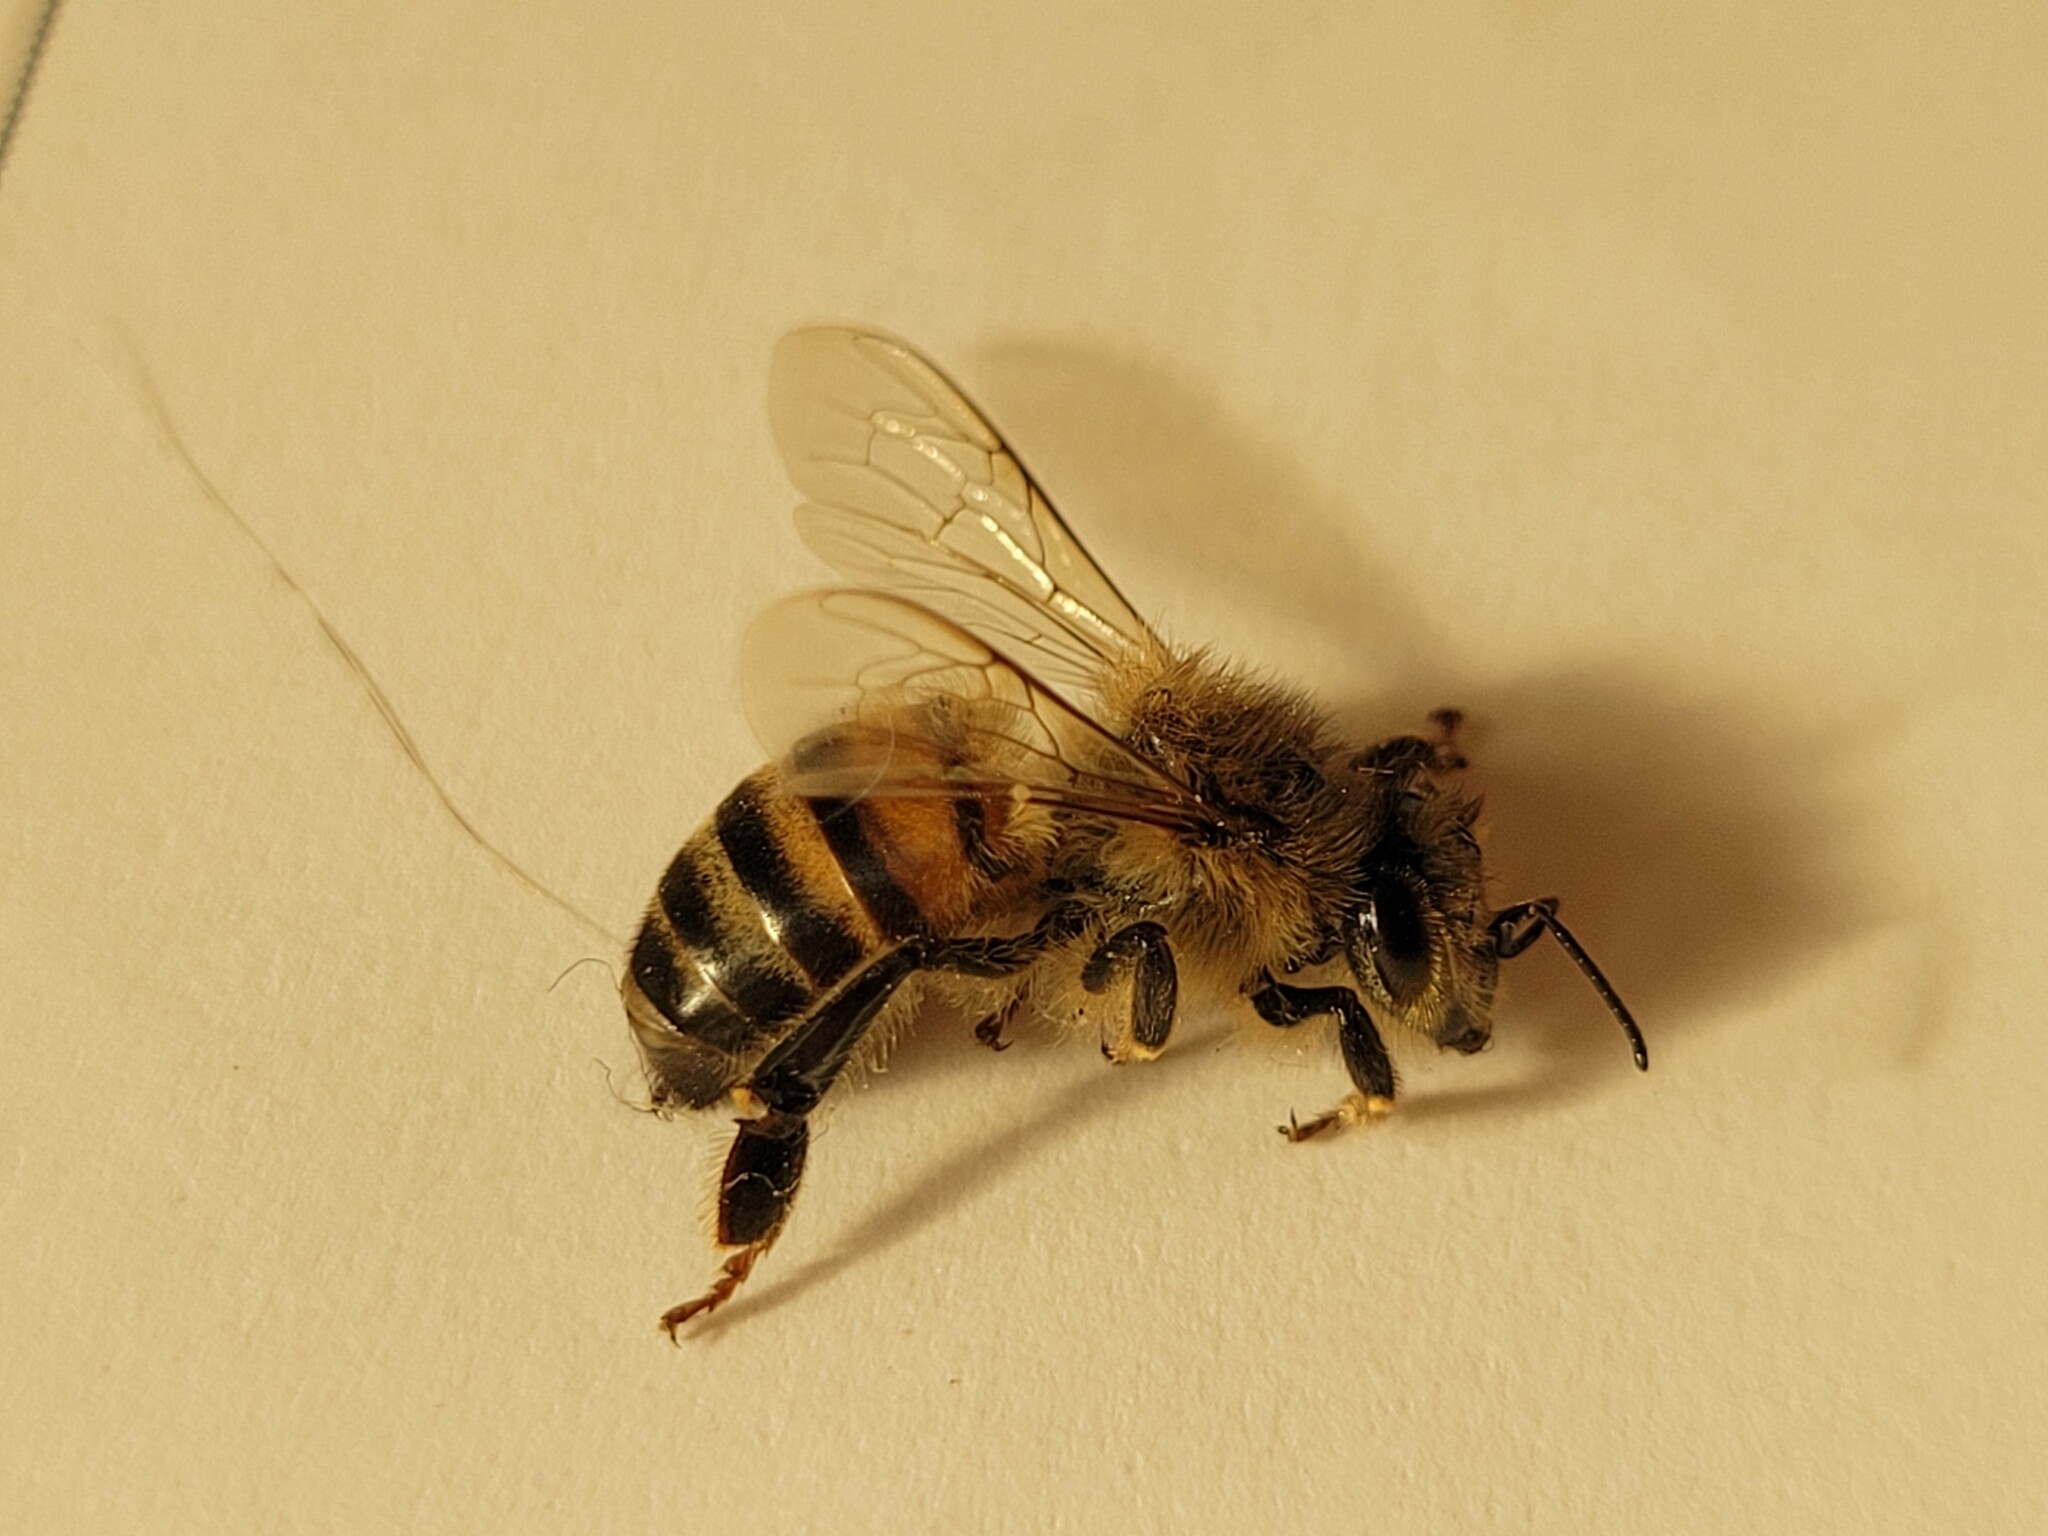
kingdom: Animalia
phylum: Arthropoda
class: Insecta
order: Hymenoptera
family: Apidae
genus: Apis
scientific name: Apis mellifera
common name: Honey bee
